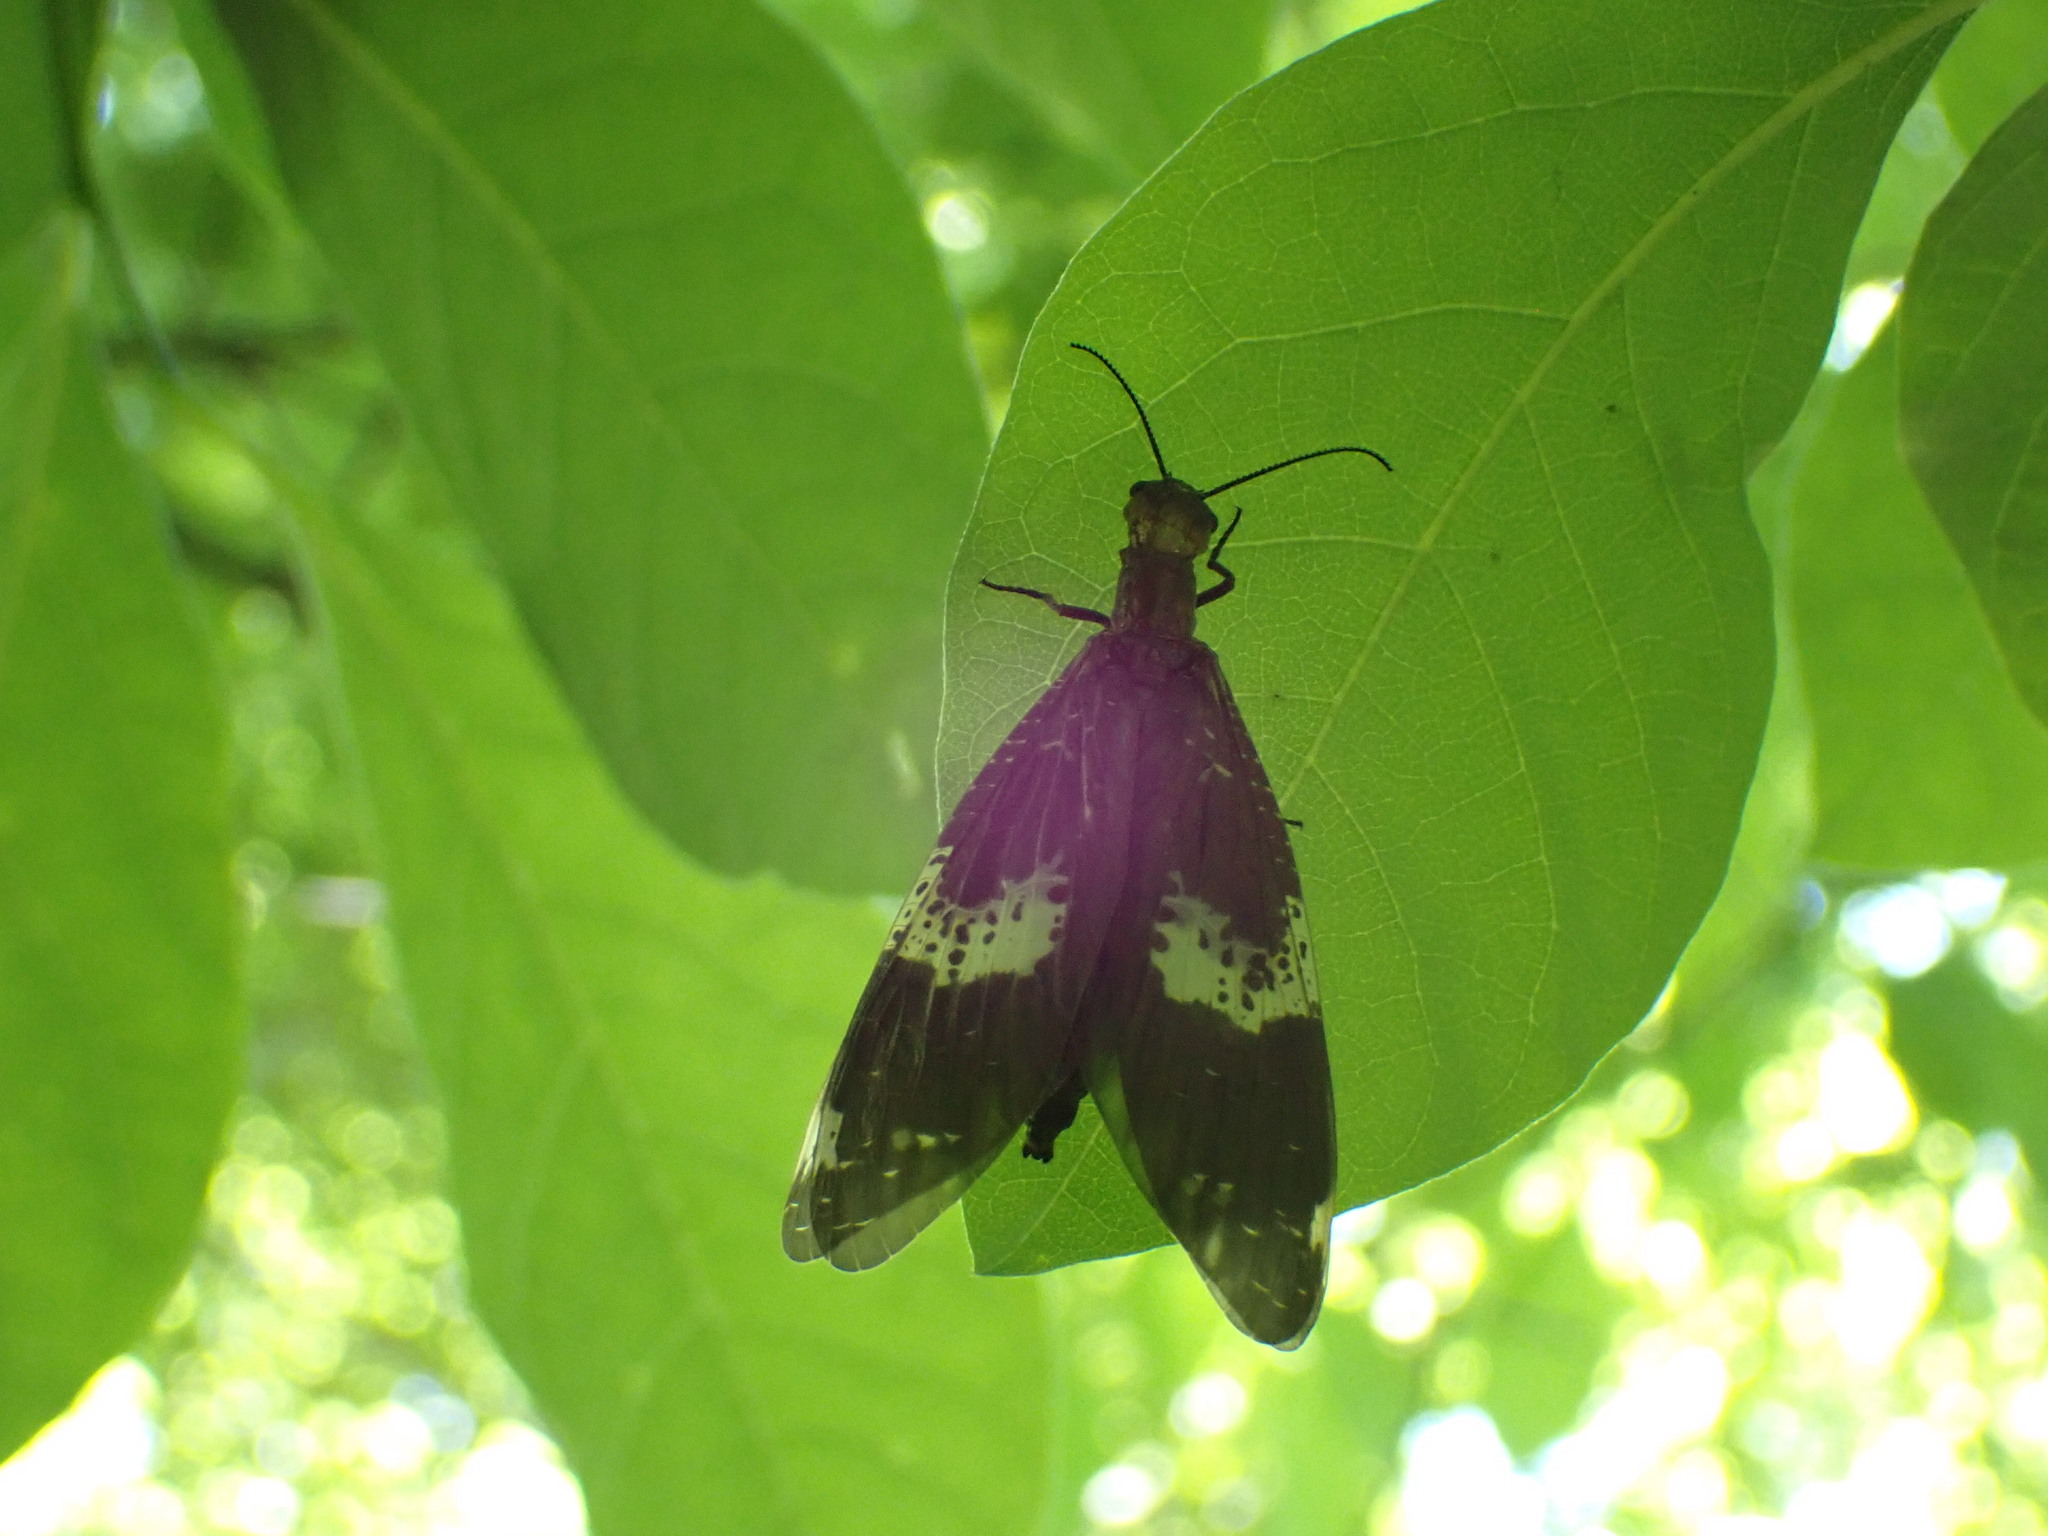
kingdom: Animalia
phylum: Arthropoda
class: Insecta
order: Megaloptera
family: Corydalidae
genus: Nigronia
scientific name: Nigronia fasciata
